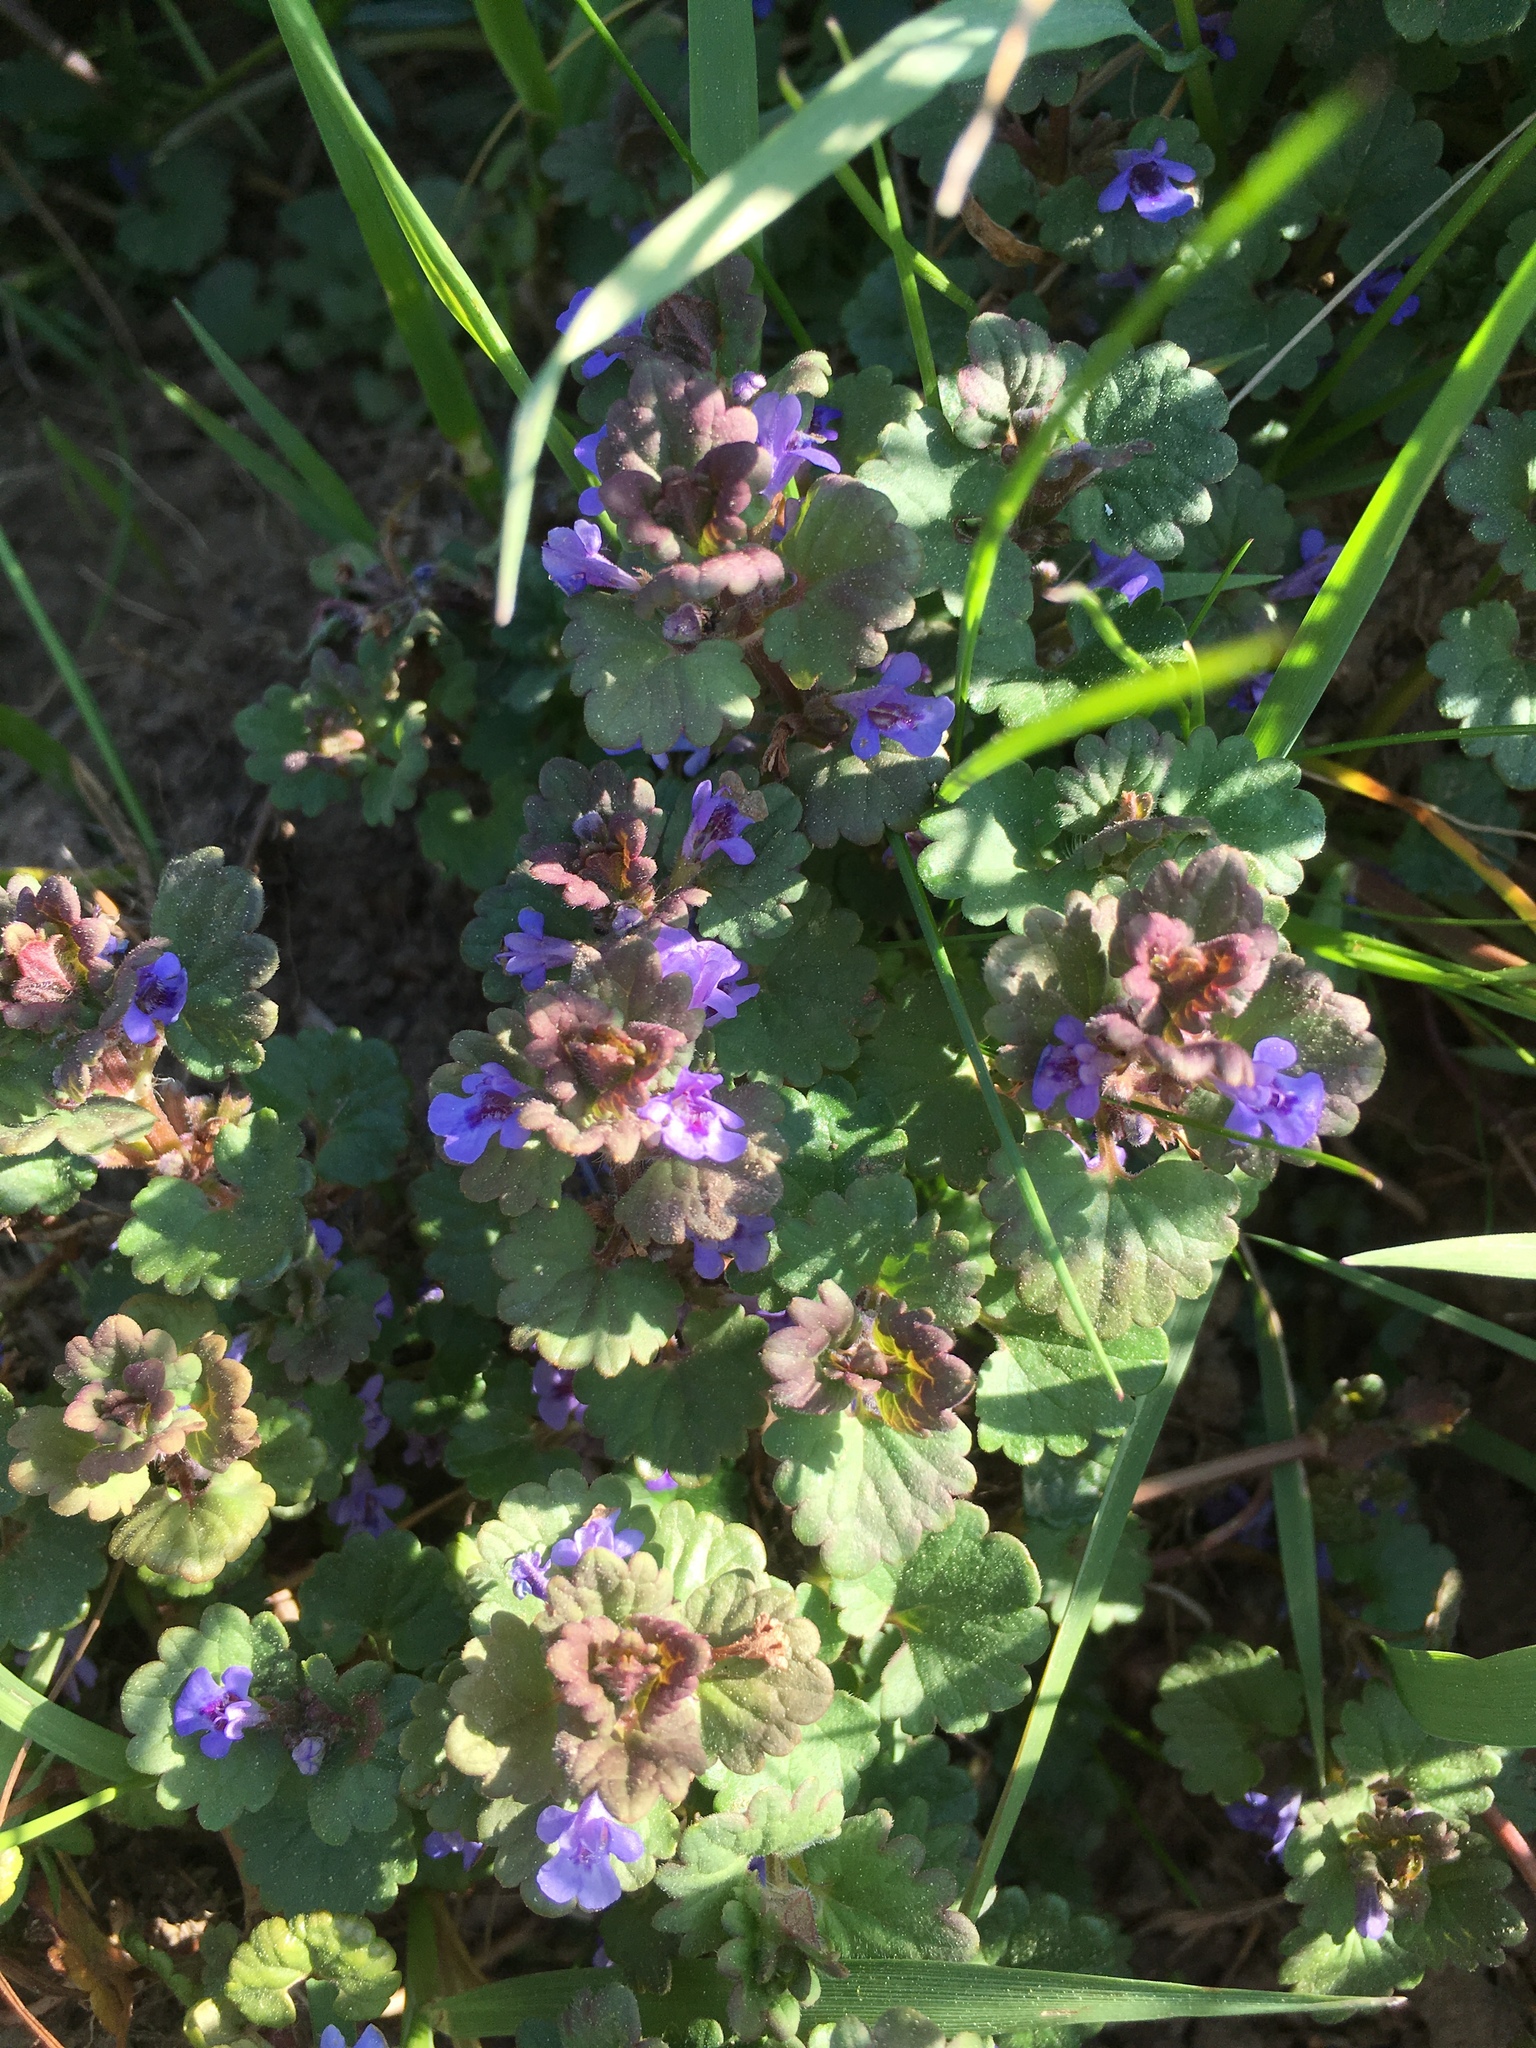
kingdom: Plantae
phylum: Tracheophyta
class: Magnoliopsida
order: Lamiales
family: Lamiaceae
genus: Glechoma
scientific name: Glechoma hederacea
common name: Ground ivy
